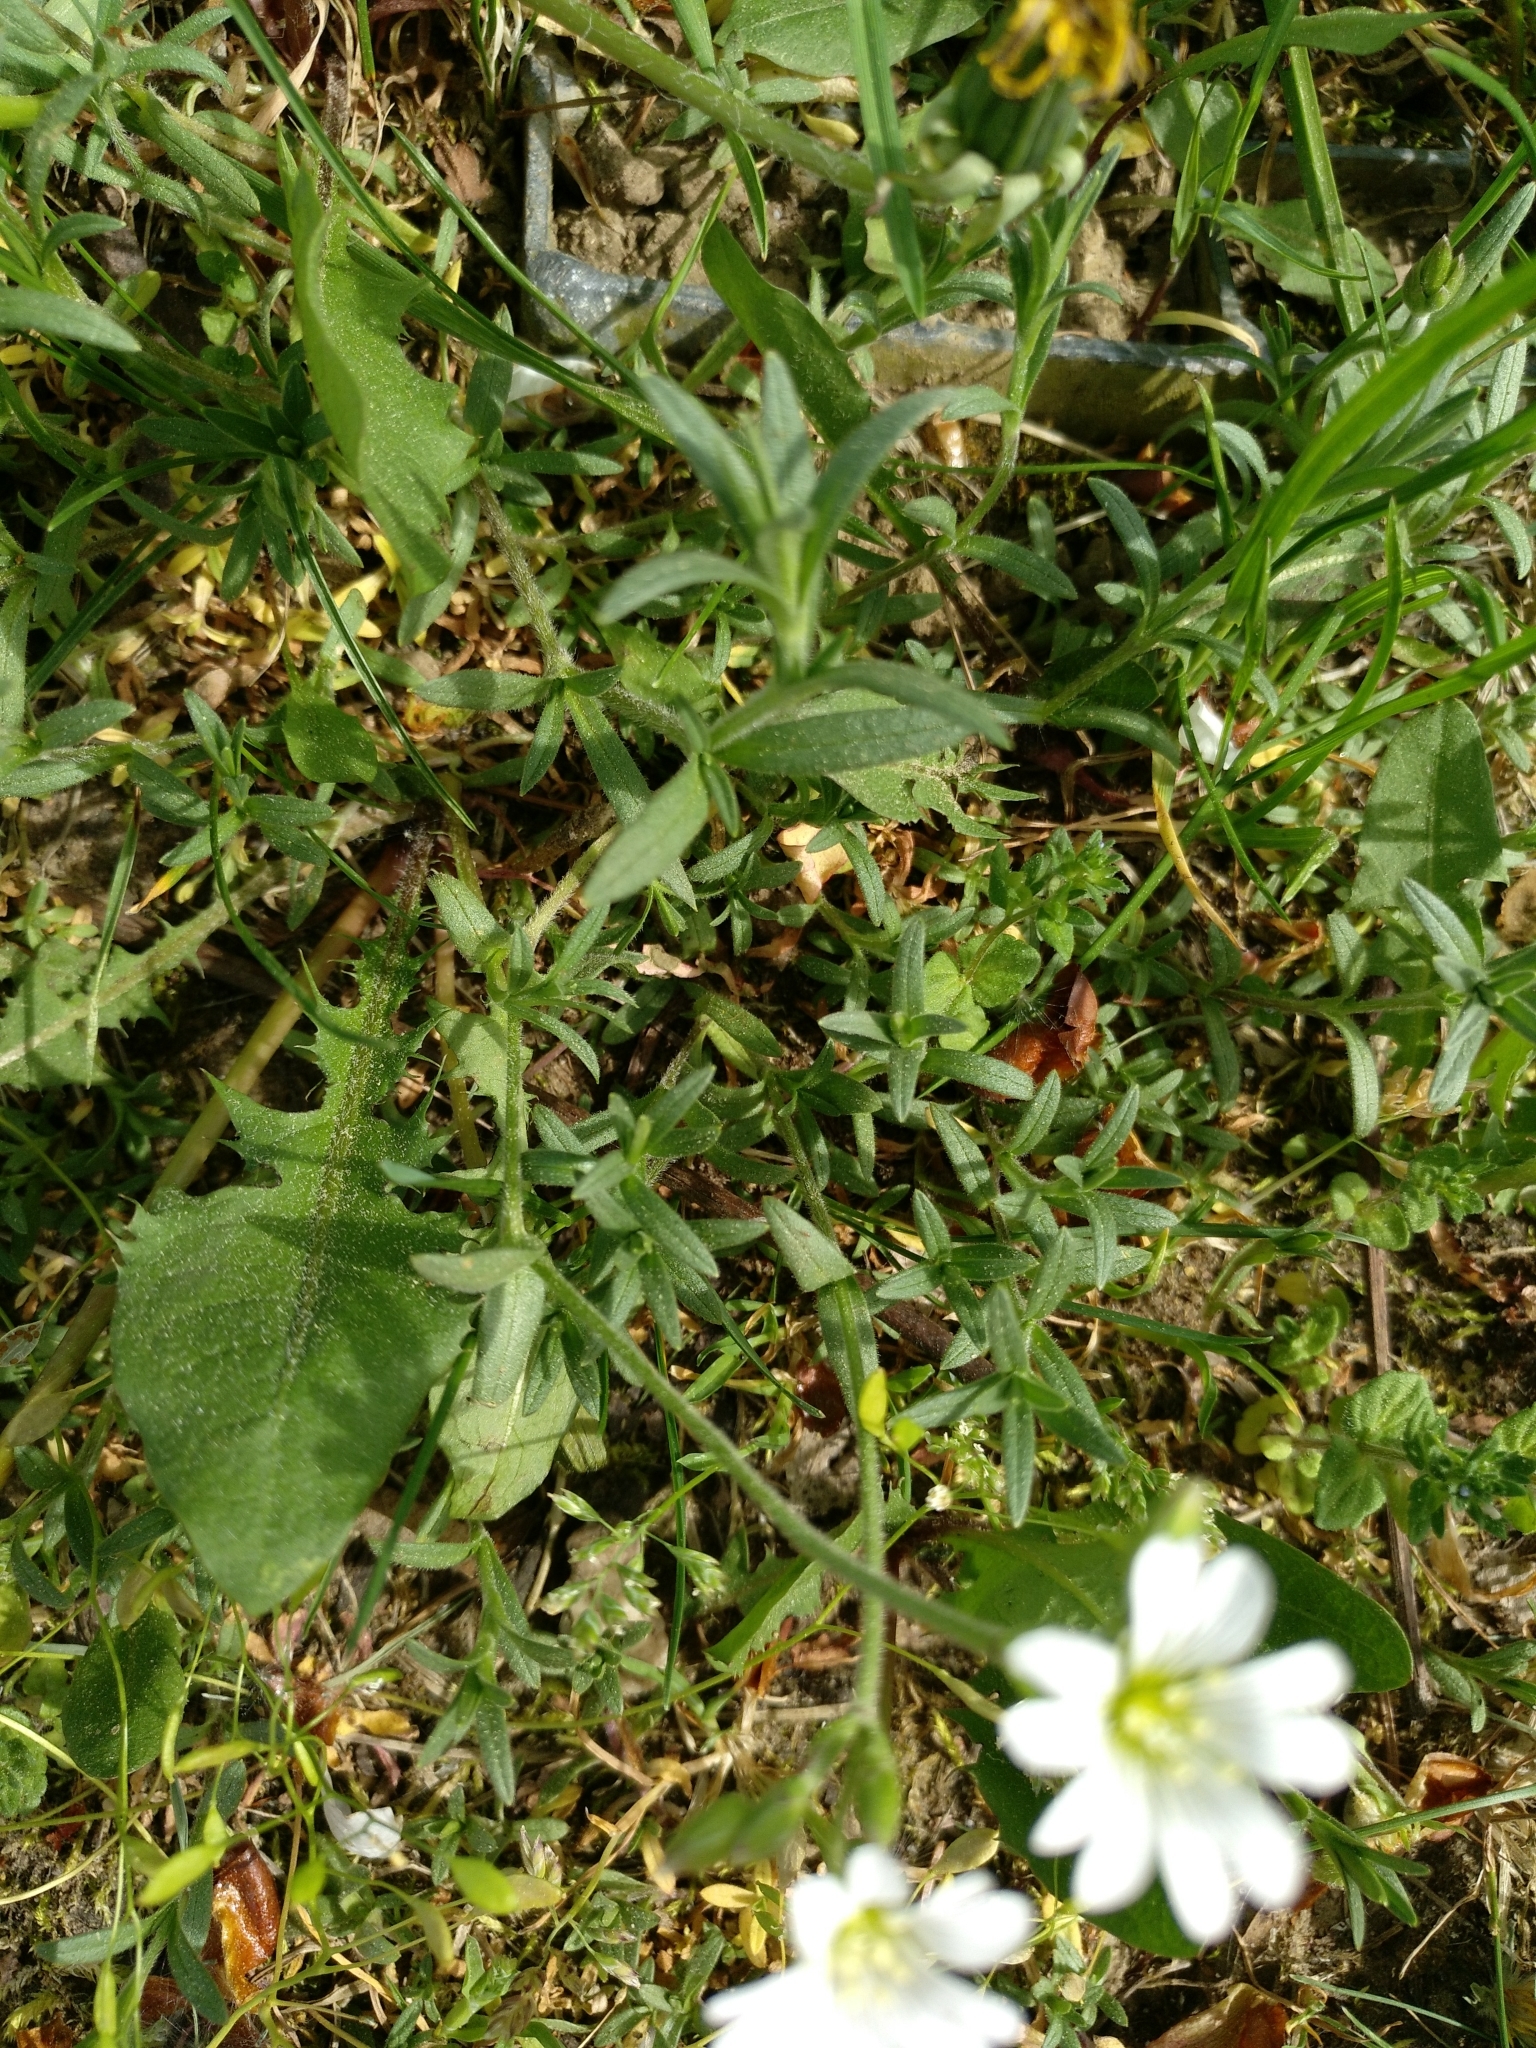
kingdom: Plantae
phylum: Tracheophyta
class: Magnoliopsida
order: Caryophyllales
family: Caryophyllaceae
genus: Cerastium
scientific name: Cerastium arvense
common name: Field mouse-ear
